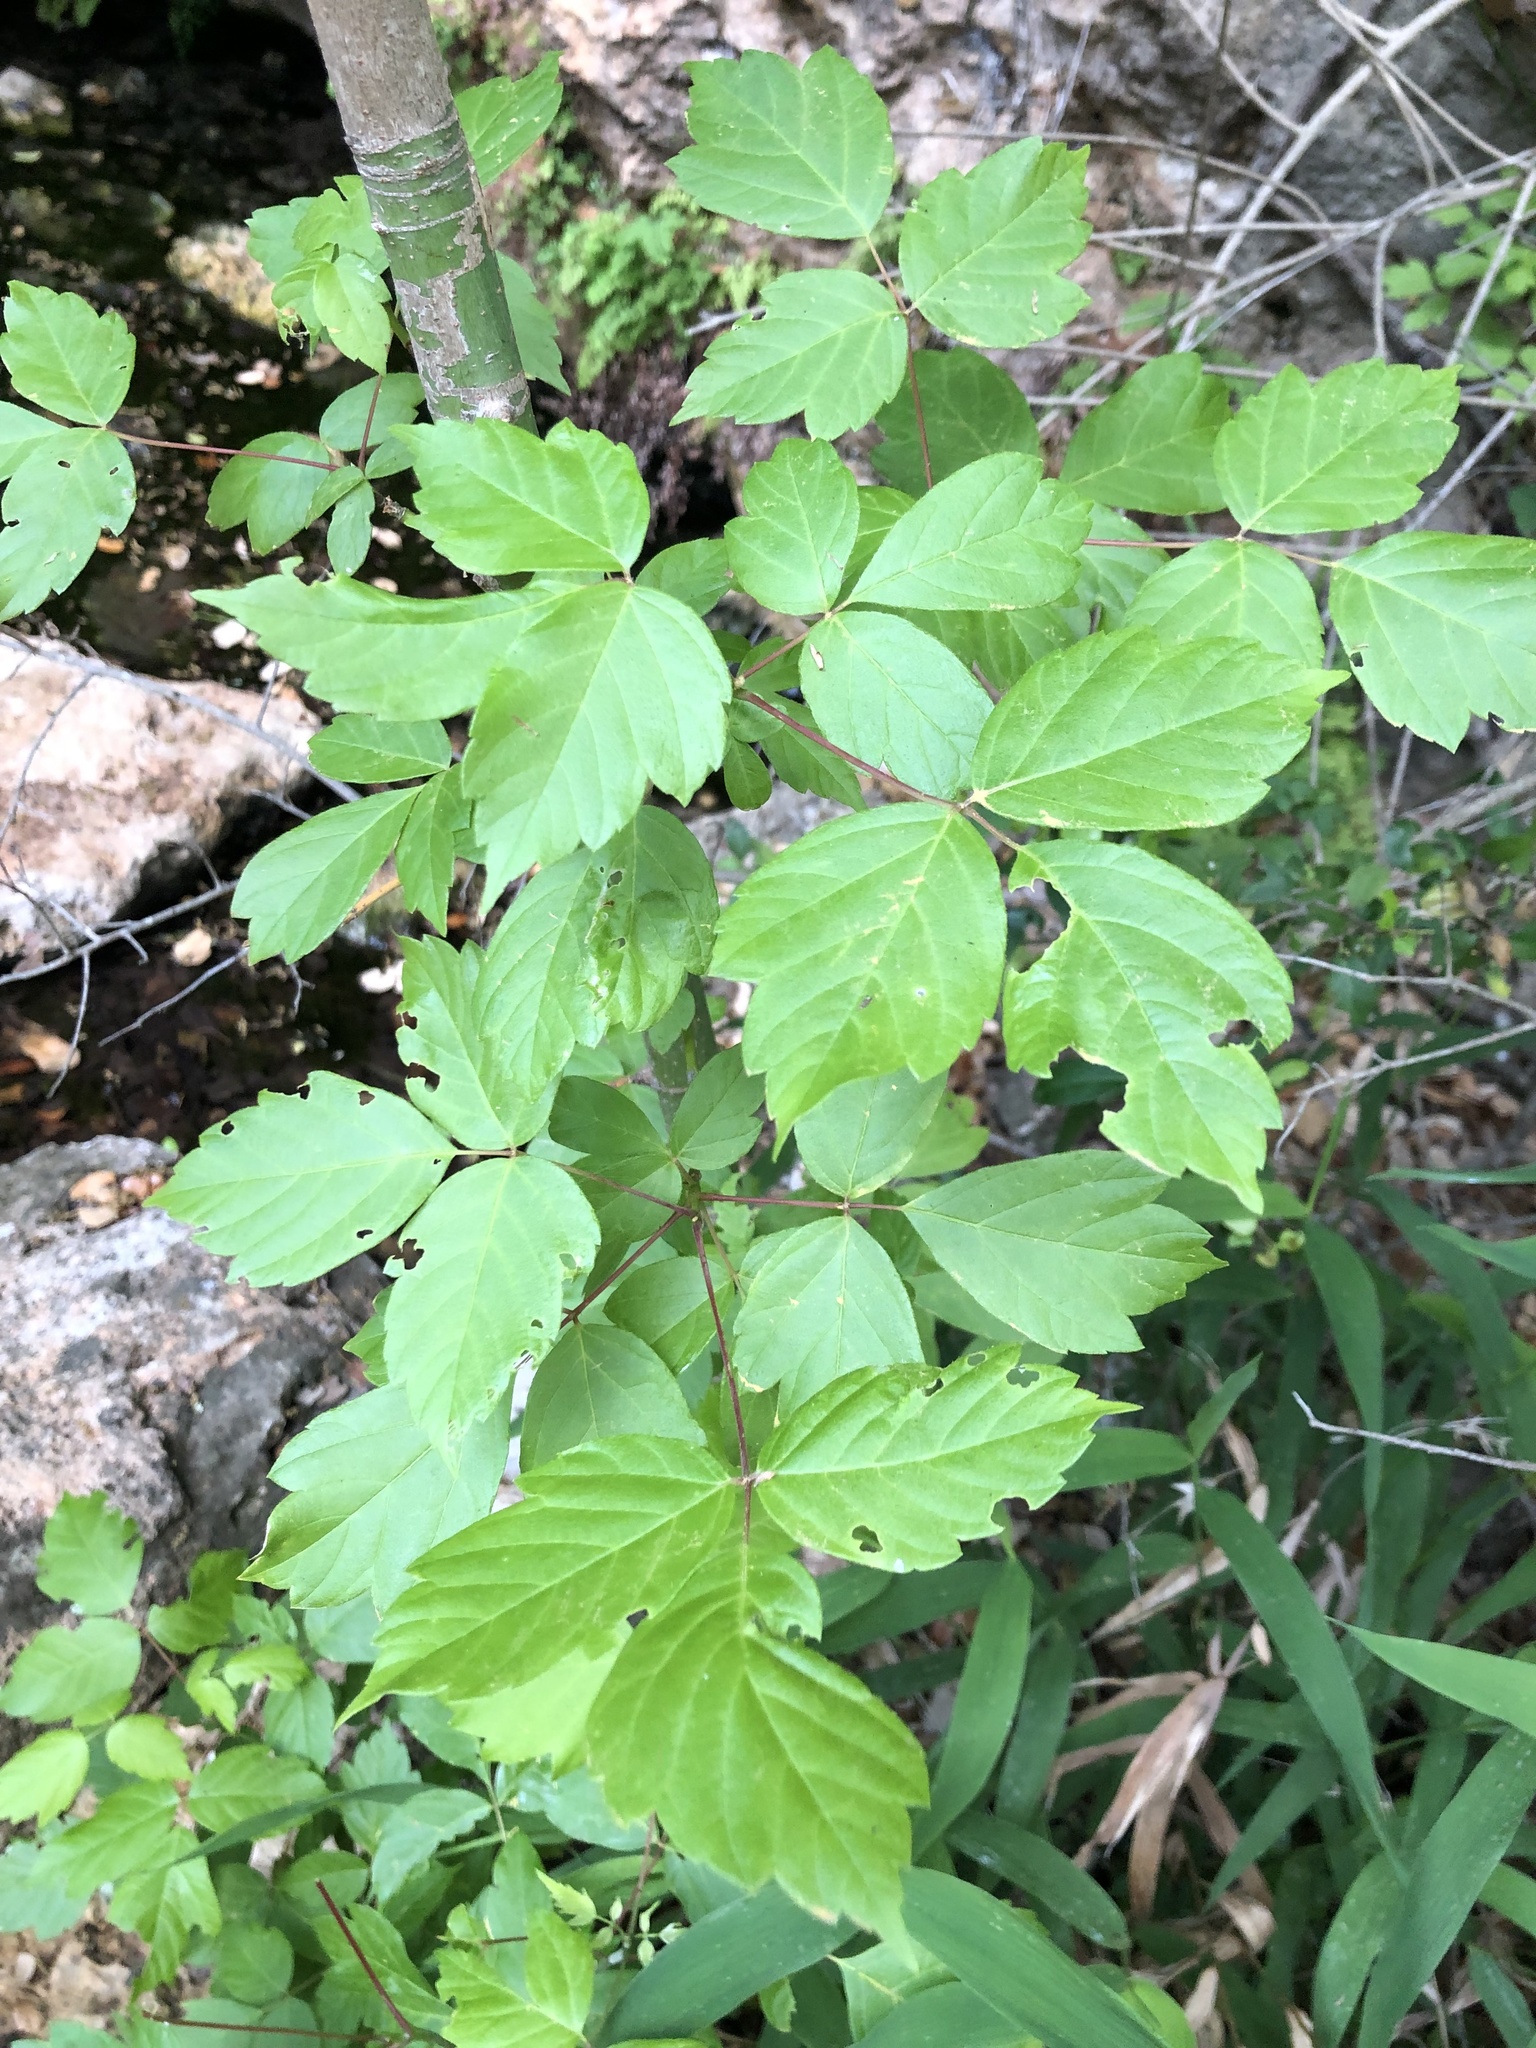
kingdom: Plantae
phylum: Tracheophyta
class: Magnoliopsida
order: Sapindales
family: Sapindaceae
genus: Acer
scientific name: Acer negundo
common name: Ashleaf maple
